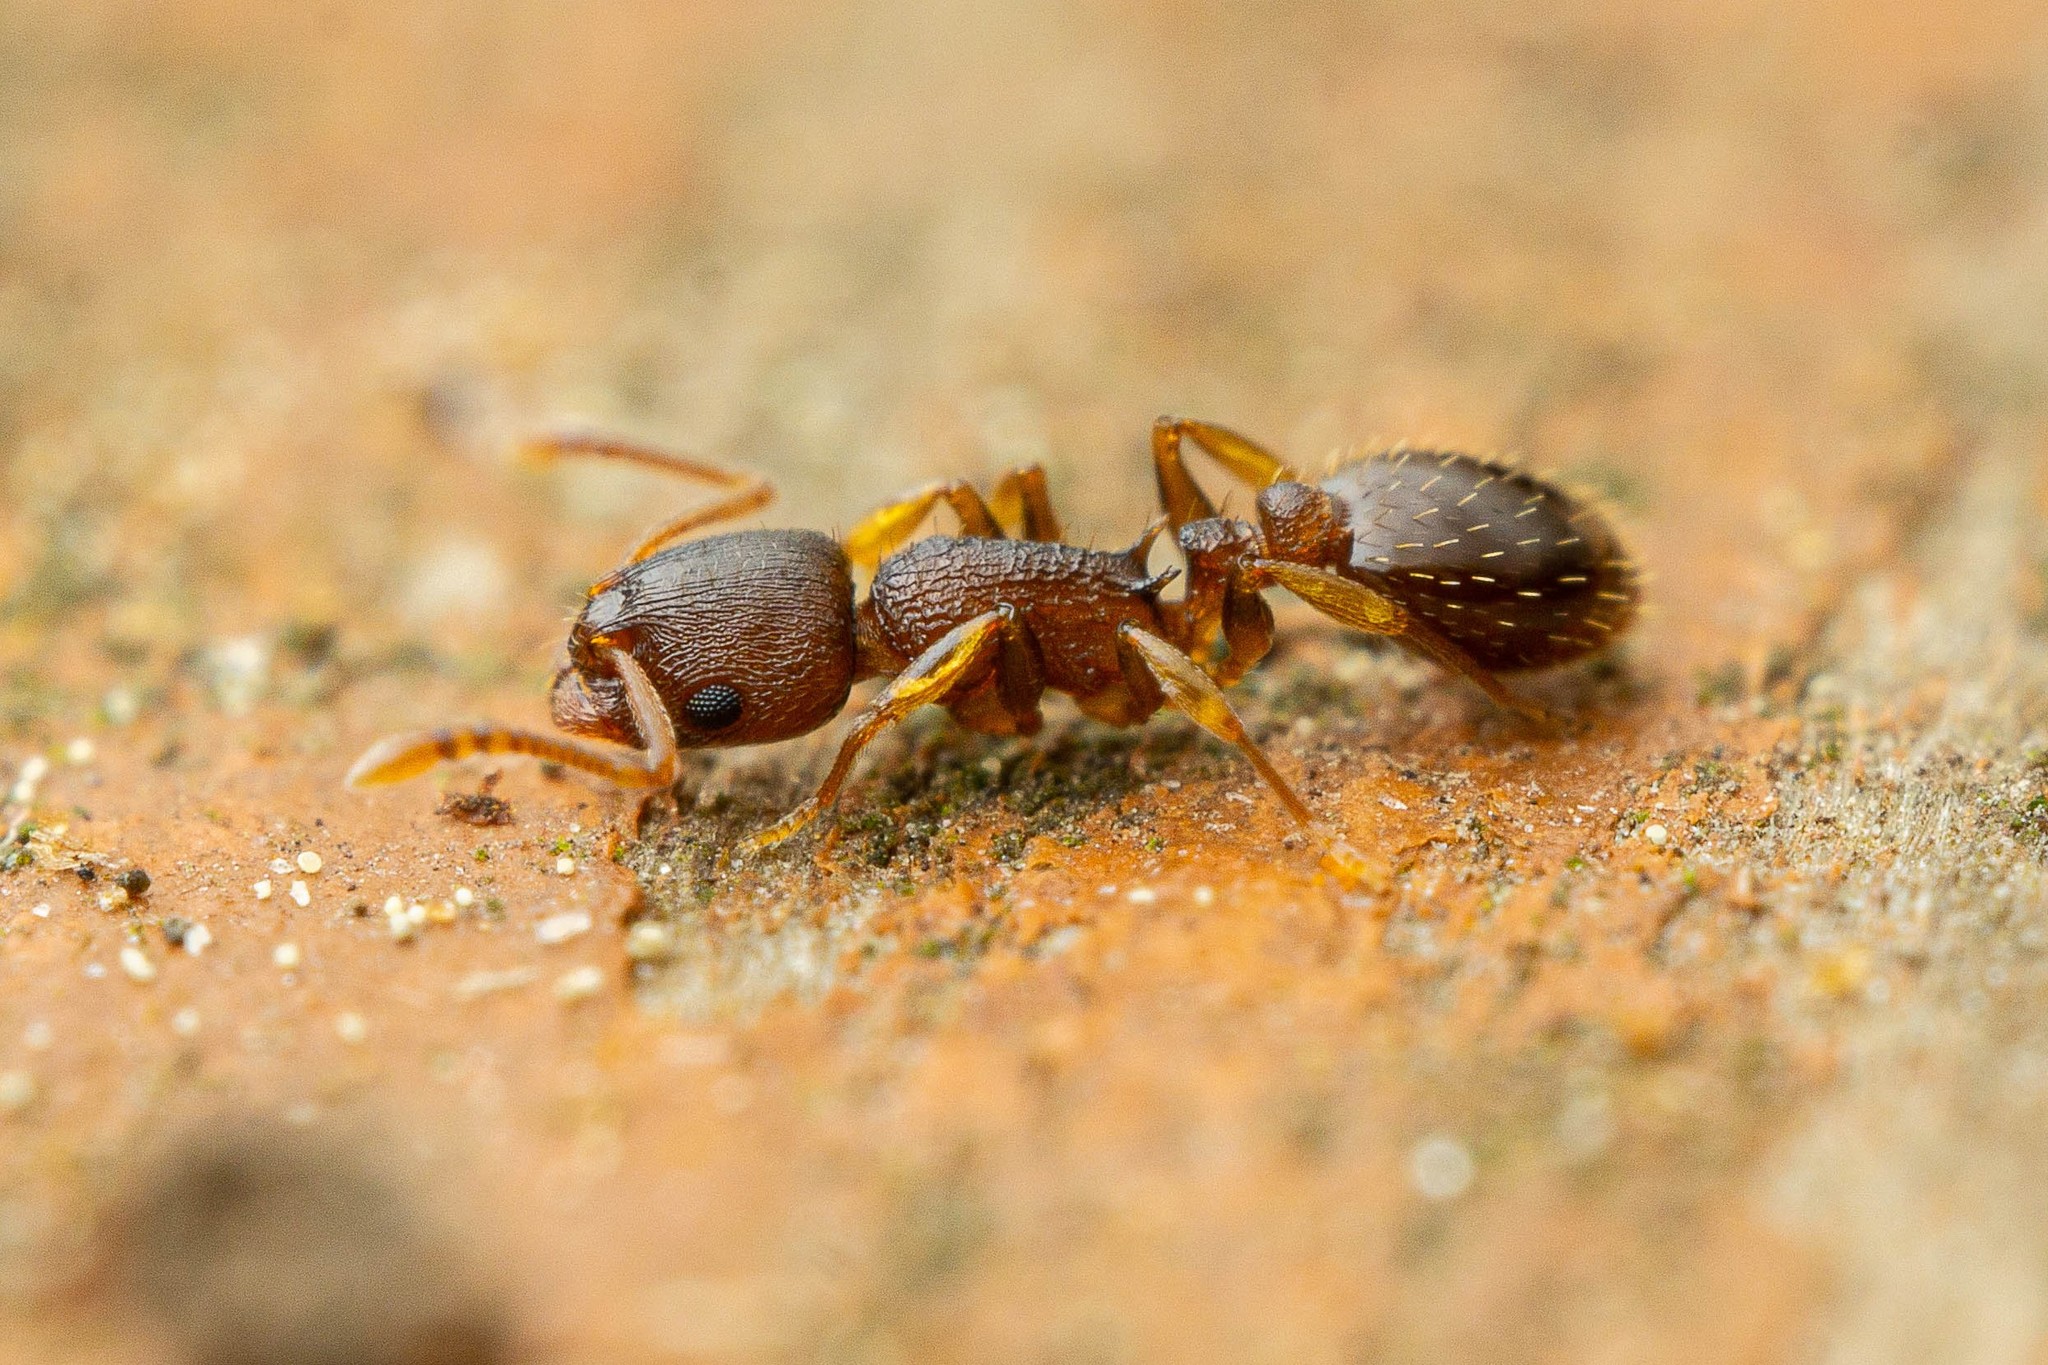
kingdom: Animalia
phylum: Arthropoda
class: Insecta
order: Hymenoptera
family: Formicidae
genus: Temnothorax
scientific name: Temnothorax
